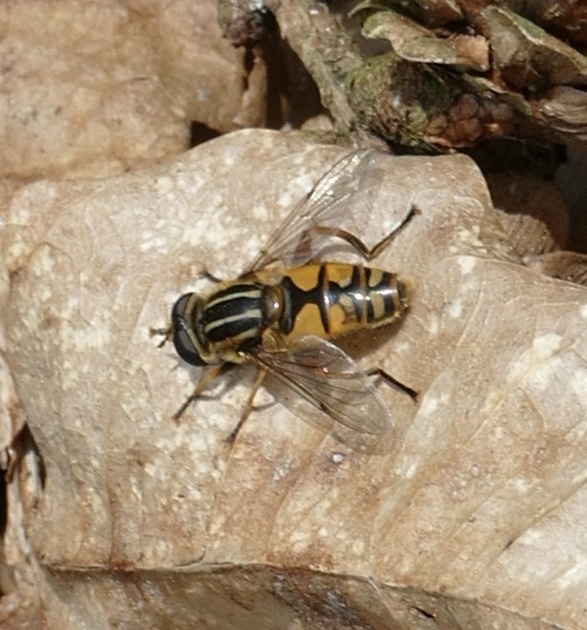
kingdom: Animalia
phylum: Arthropoda
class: Insecta
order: Diptera
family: Syrphidae
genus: Helophilus
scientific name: Helophilus pendulus
